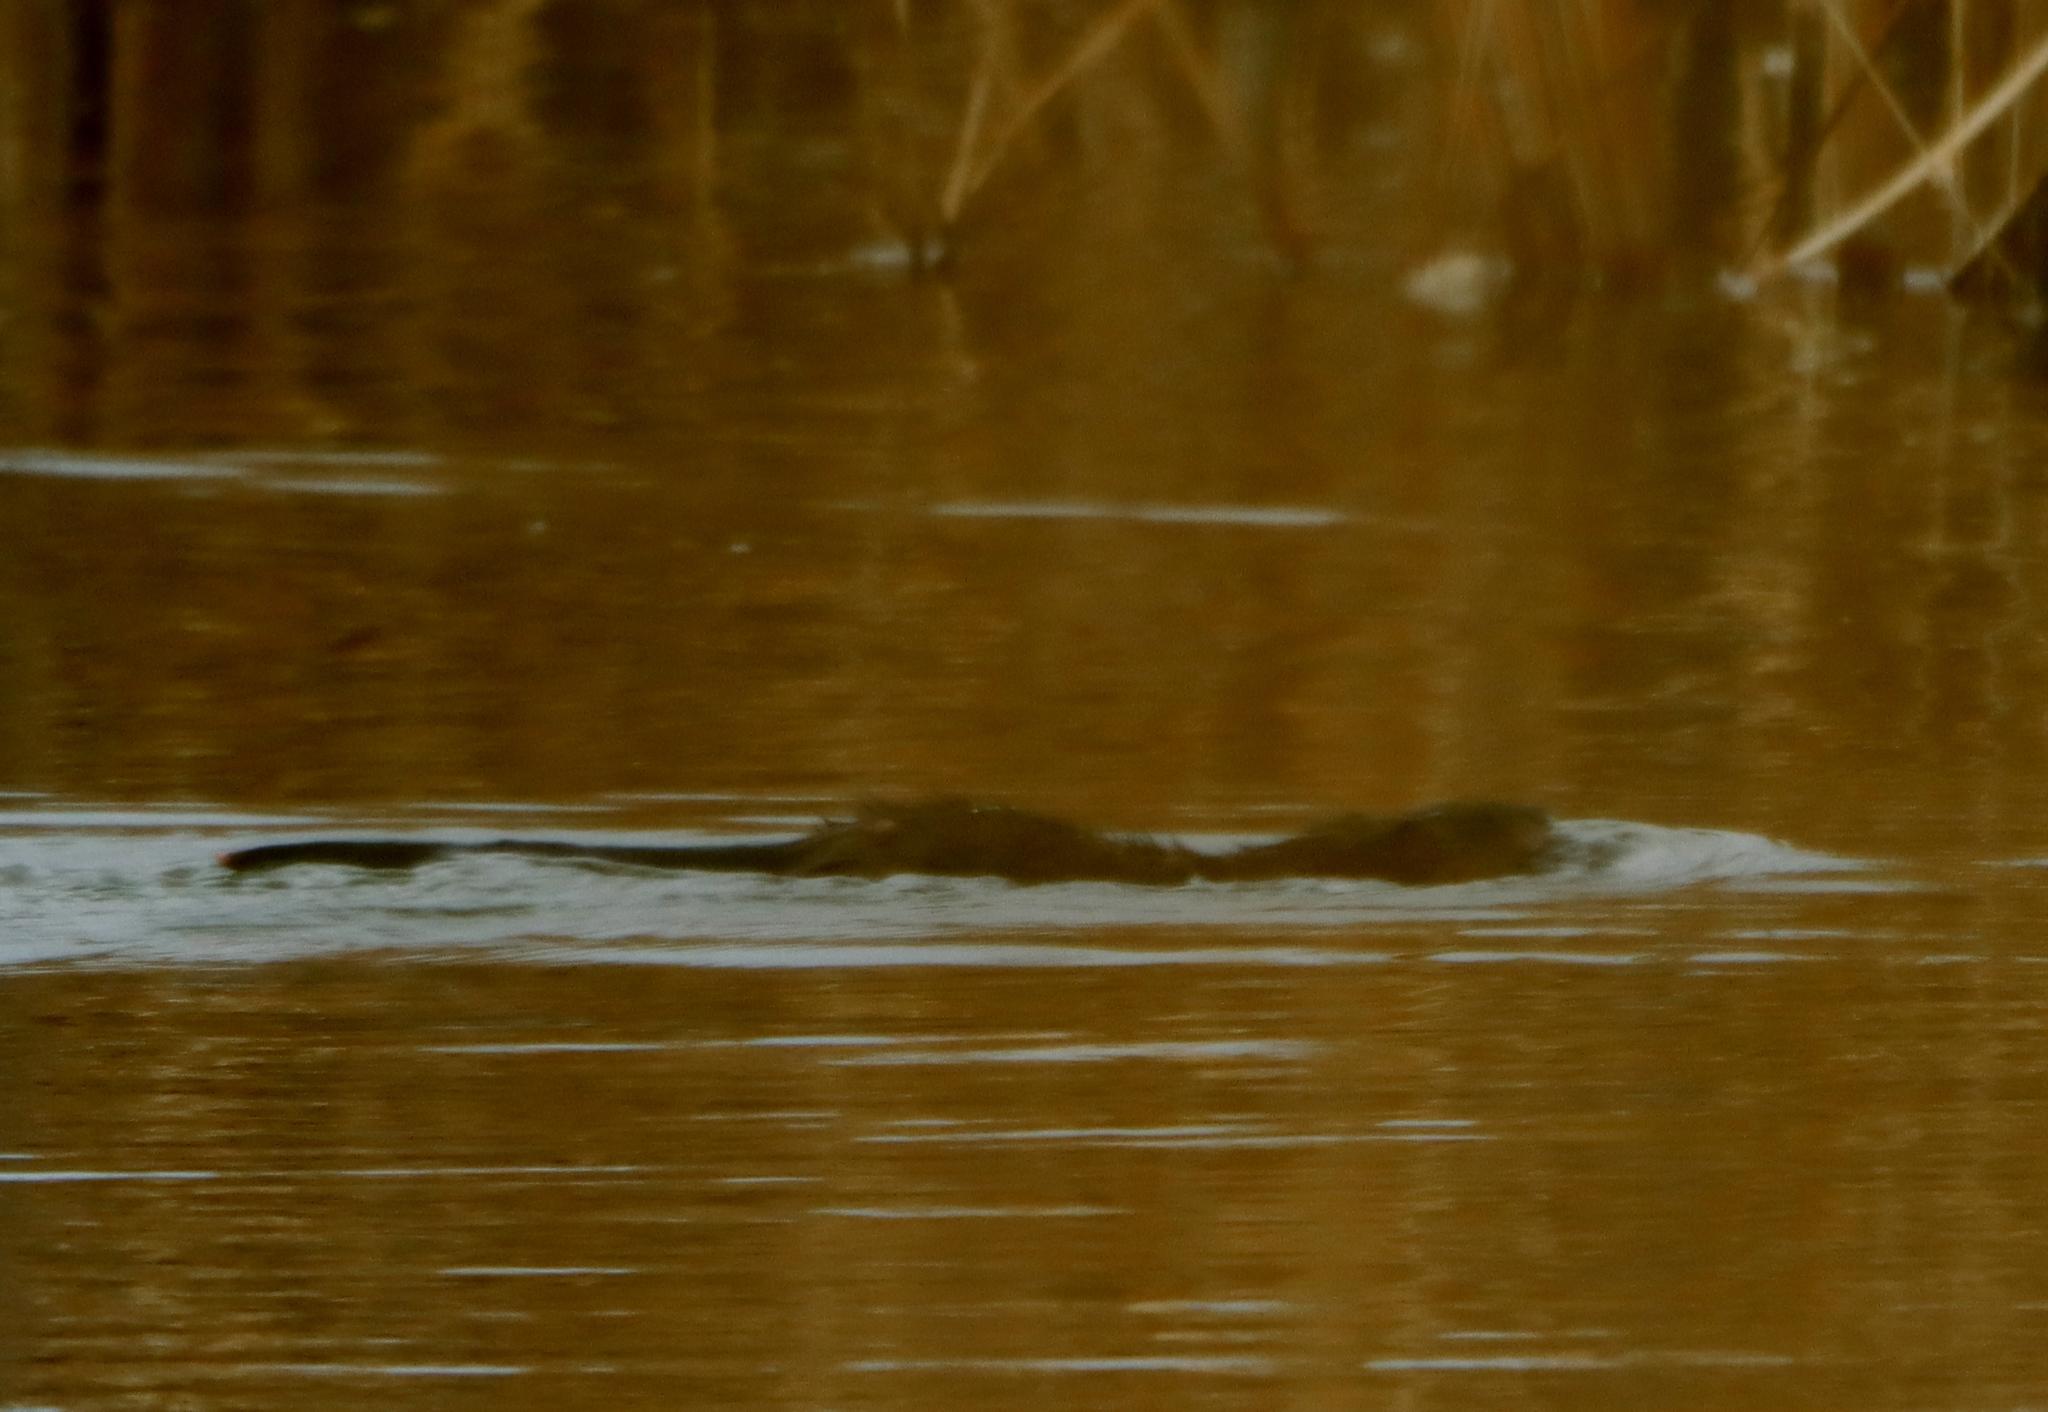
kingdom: Animalia
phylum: Chordata
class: Mammalia
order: Rodentia
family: Cricetidae
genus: Ondatra
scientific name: Ondatra zibethicus
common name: Muskrat
